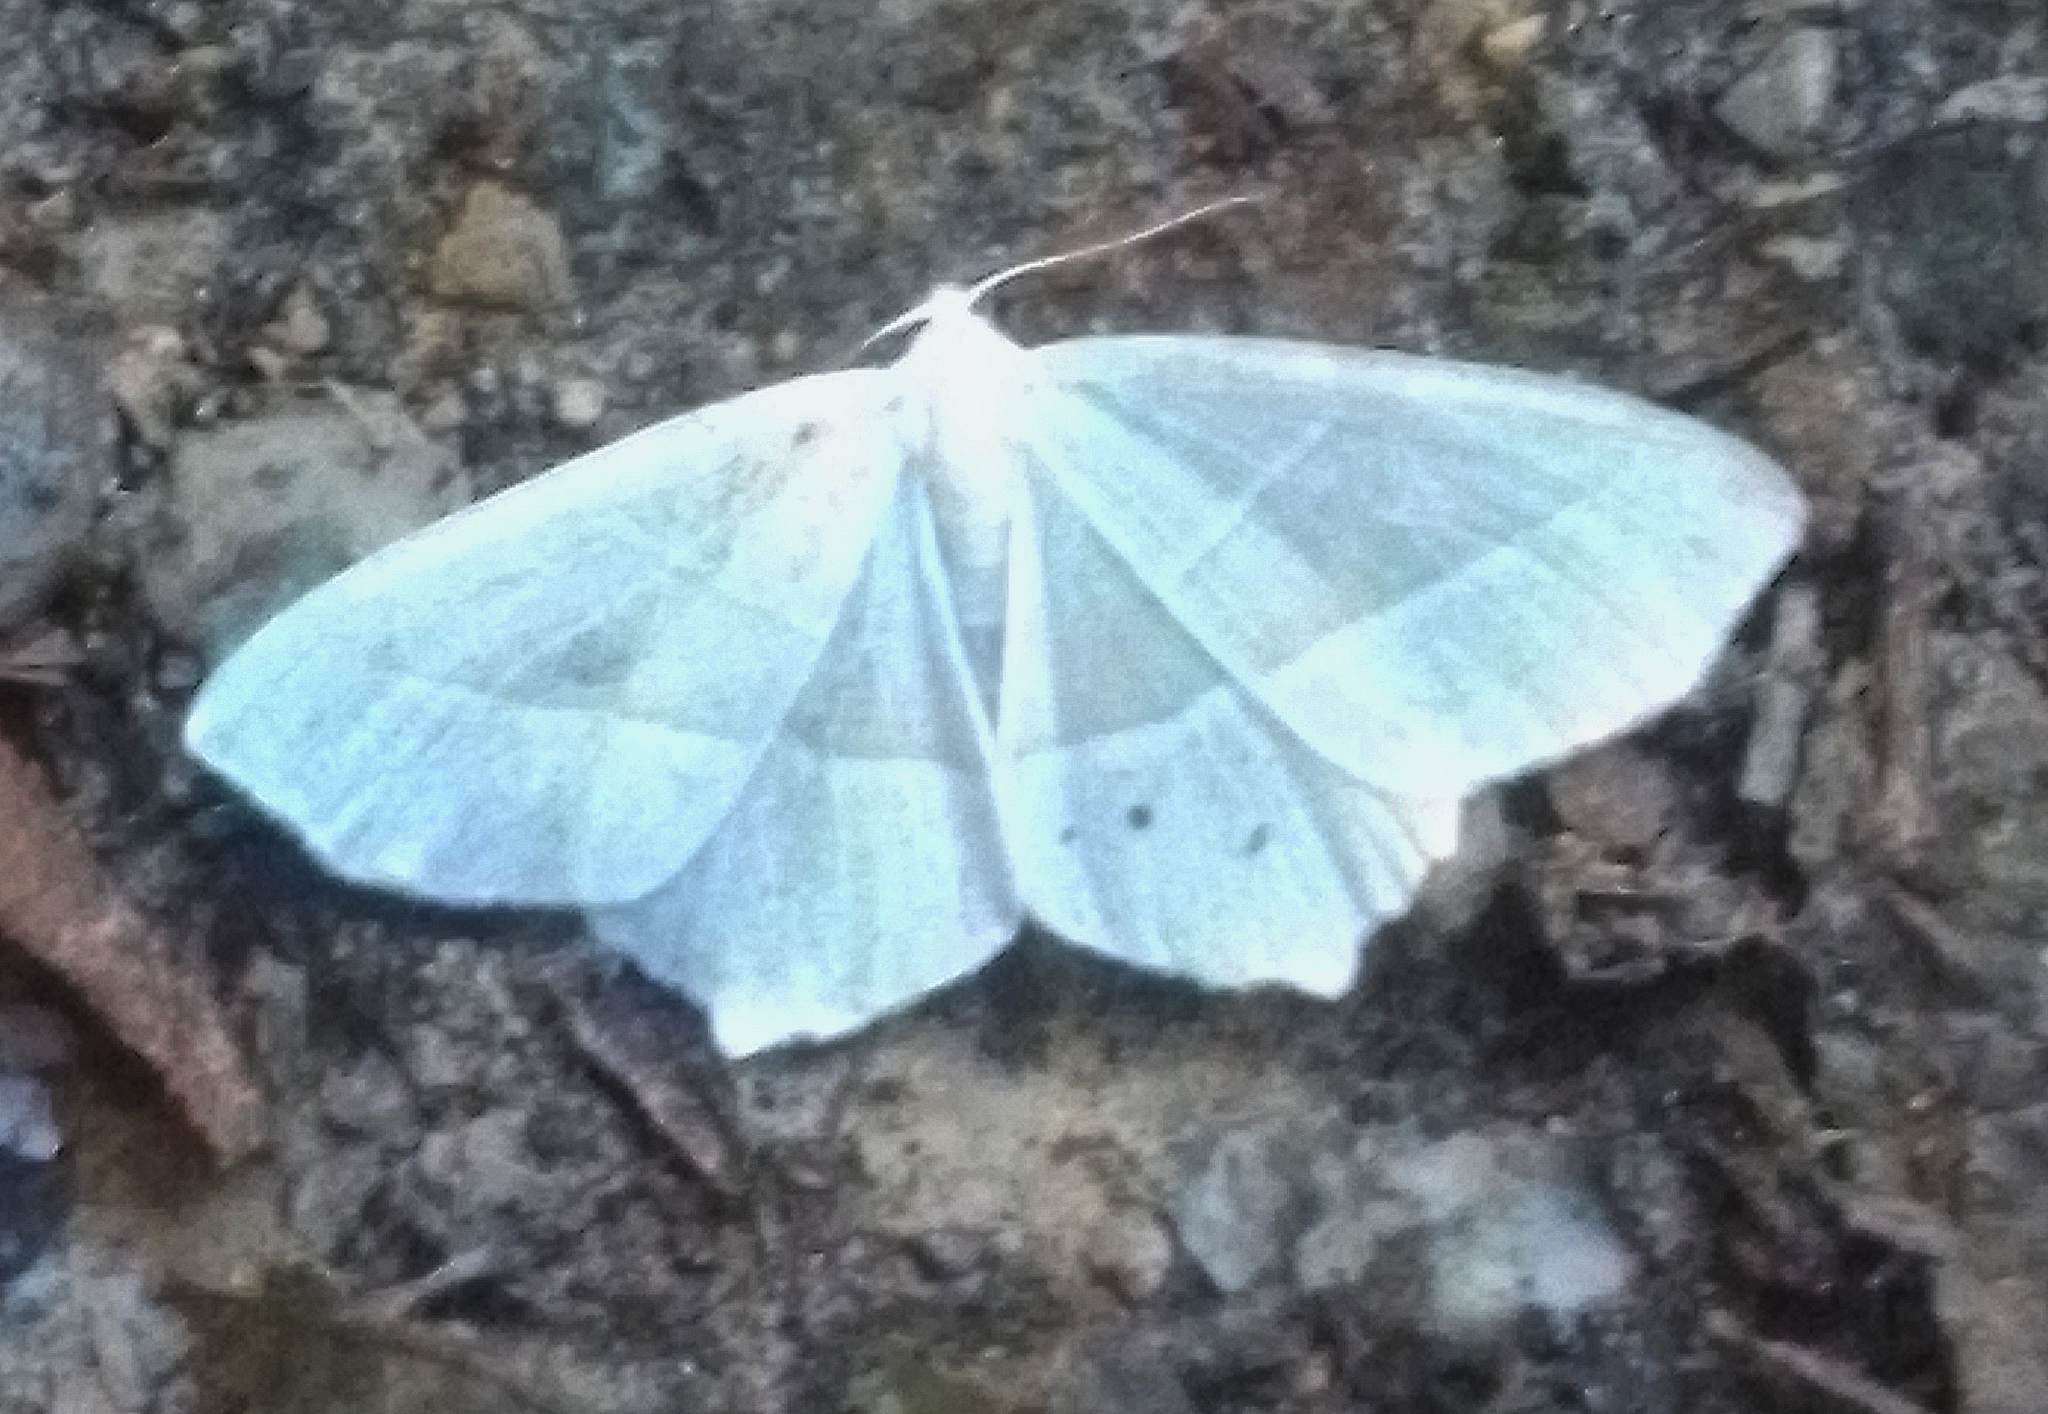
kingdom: Animalia
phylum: Arthropoda
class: Insecta
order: Lepidoptera
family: Geometridae
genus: Campaea
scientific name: Campaea margaritaria
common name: Light emerald
